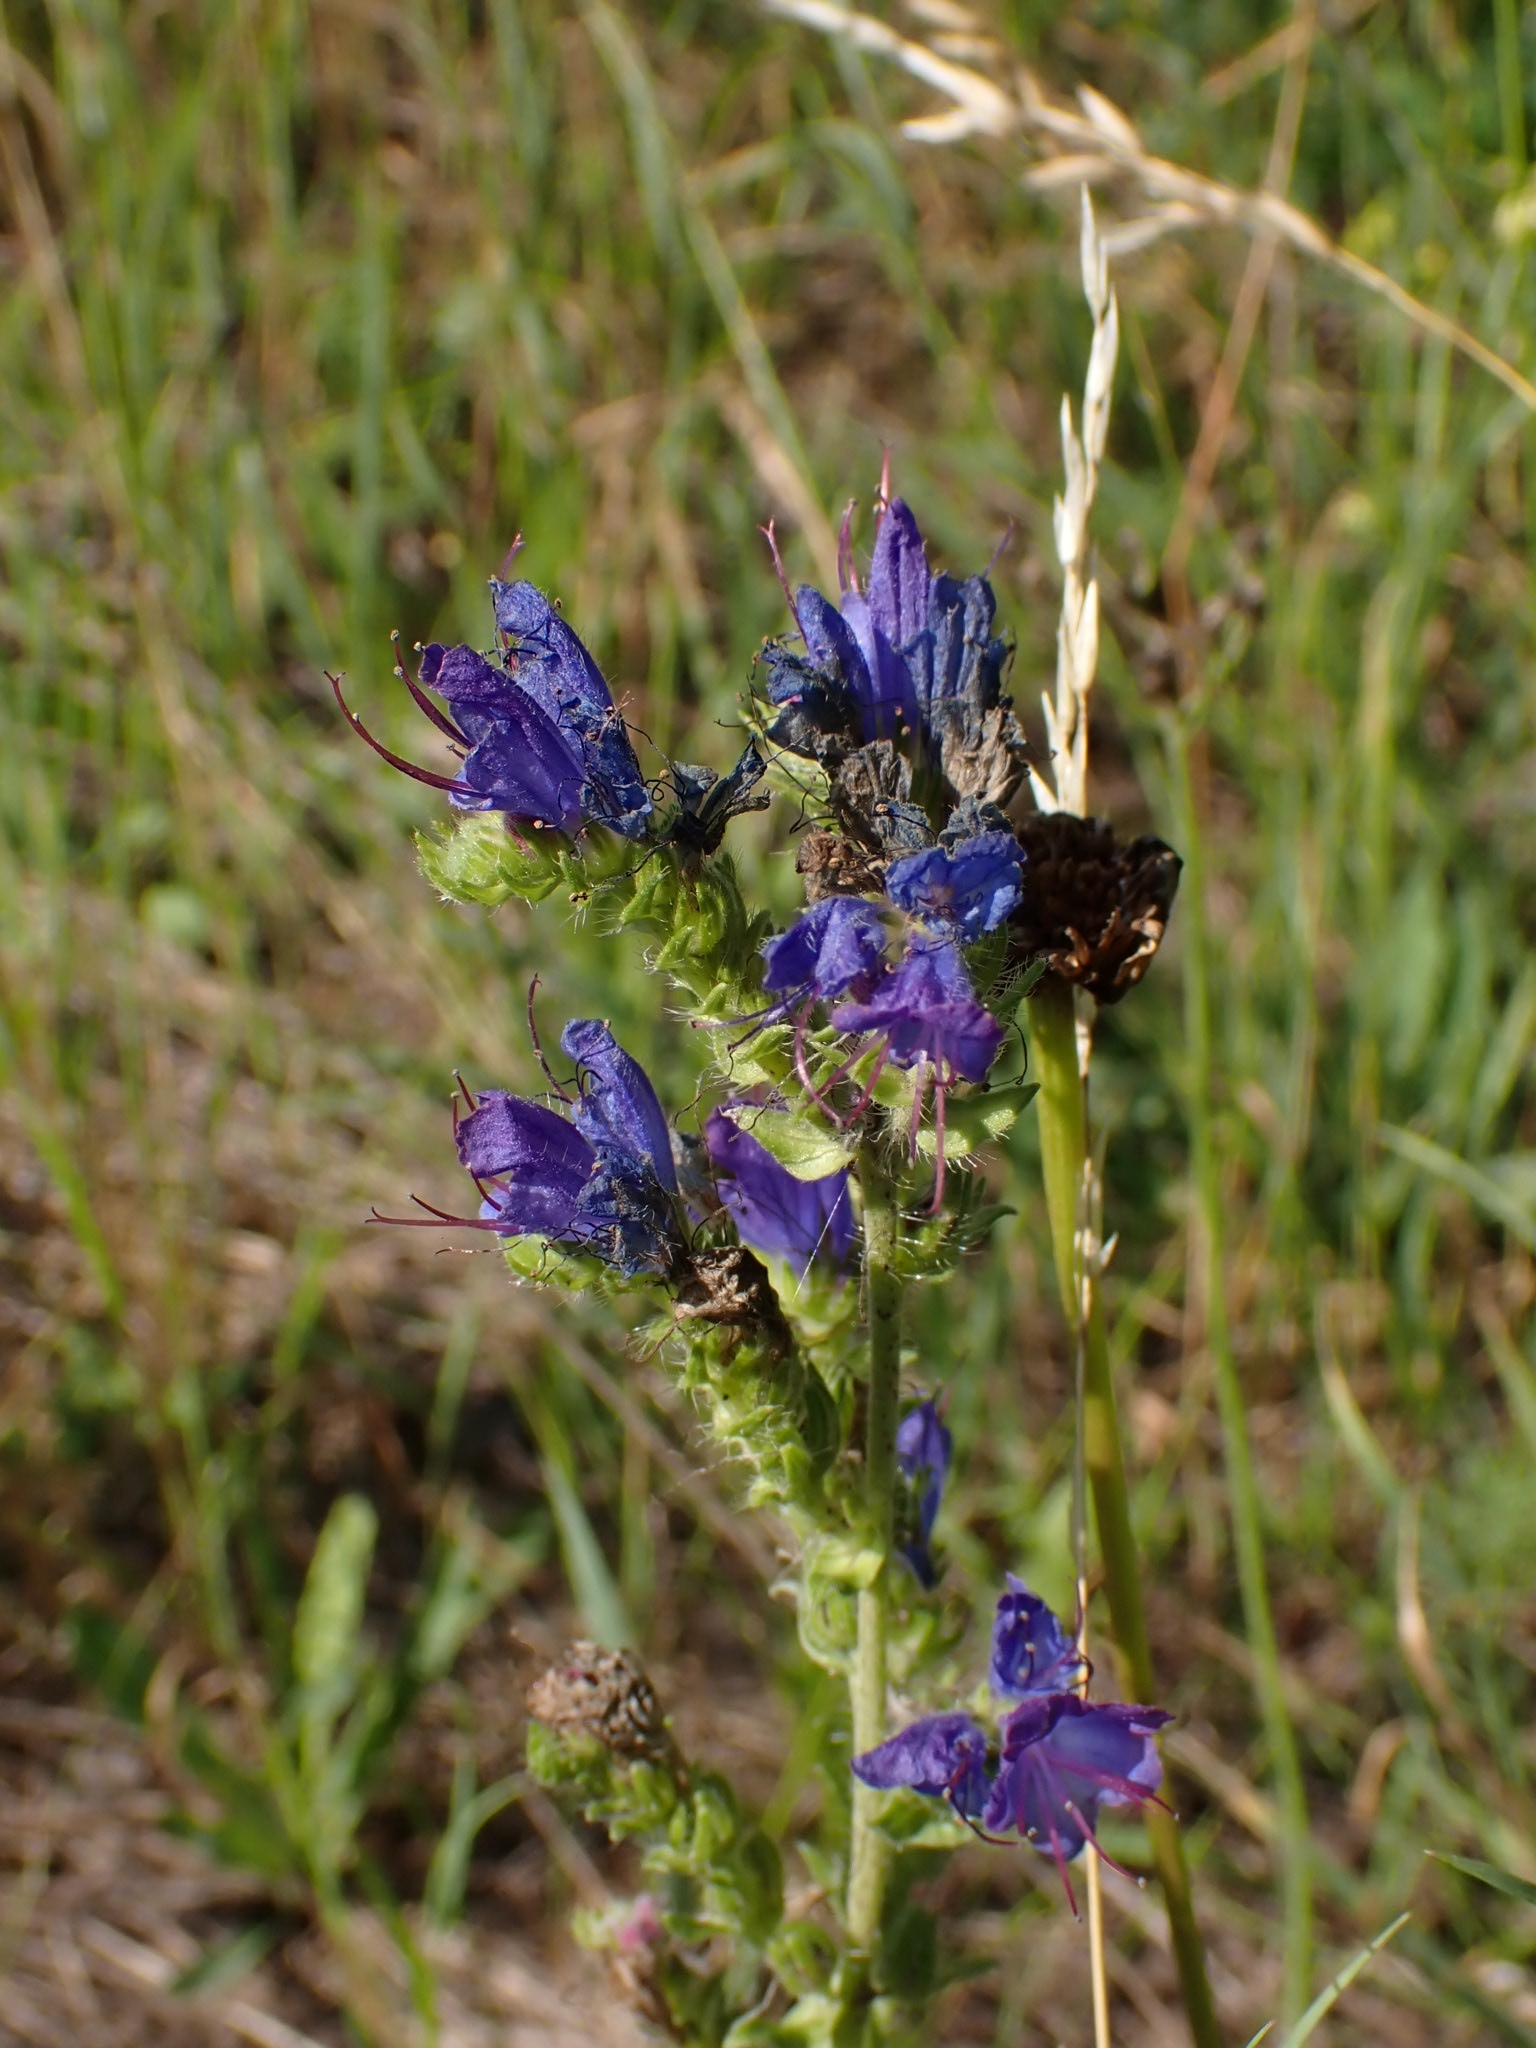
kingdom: Plantae
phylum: Tracheophyta
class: Magnoliopsida
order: Boraginales
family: Boraginaceae
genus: Echium
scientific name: Echium vulgare
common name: Common viper's bugloss
